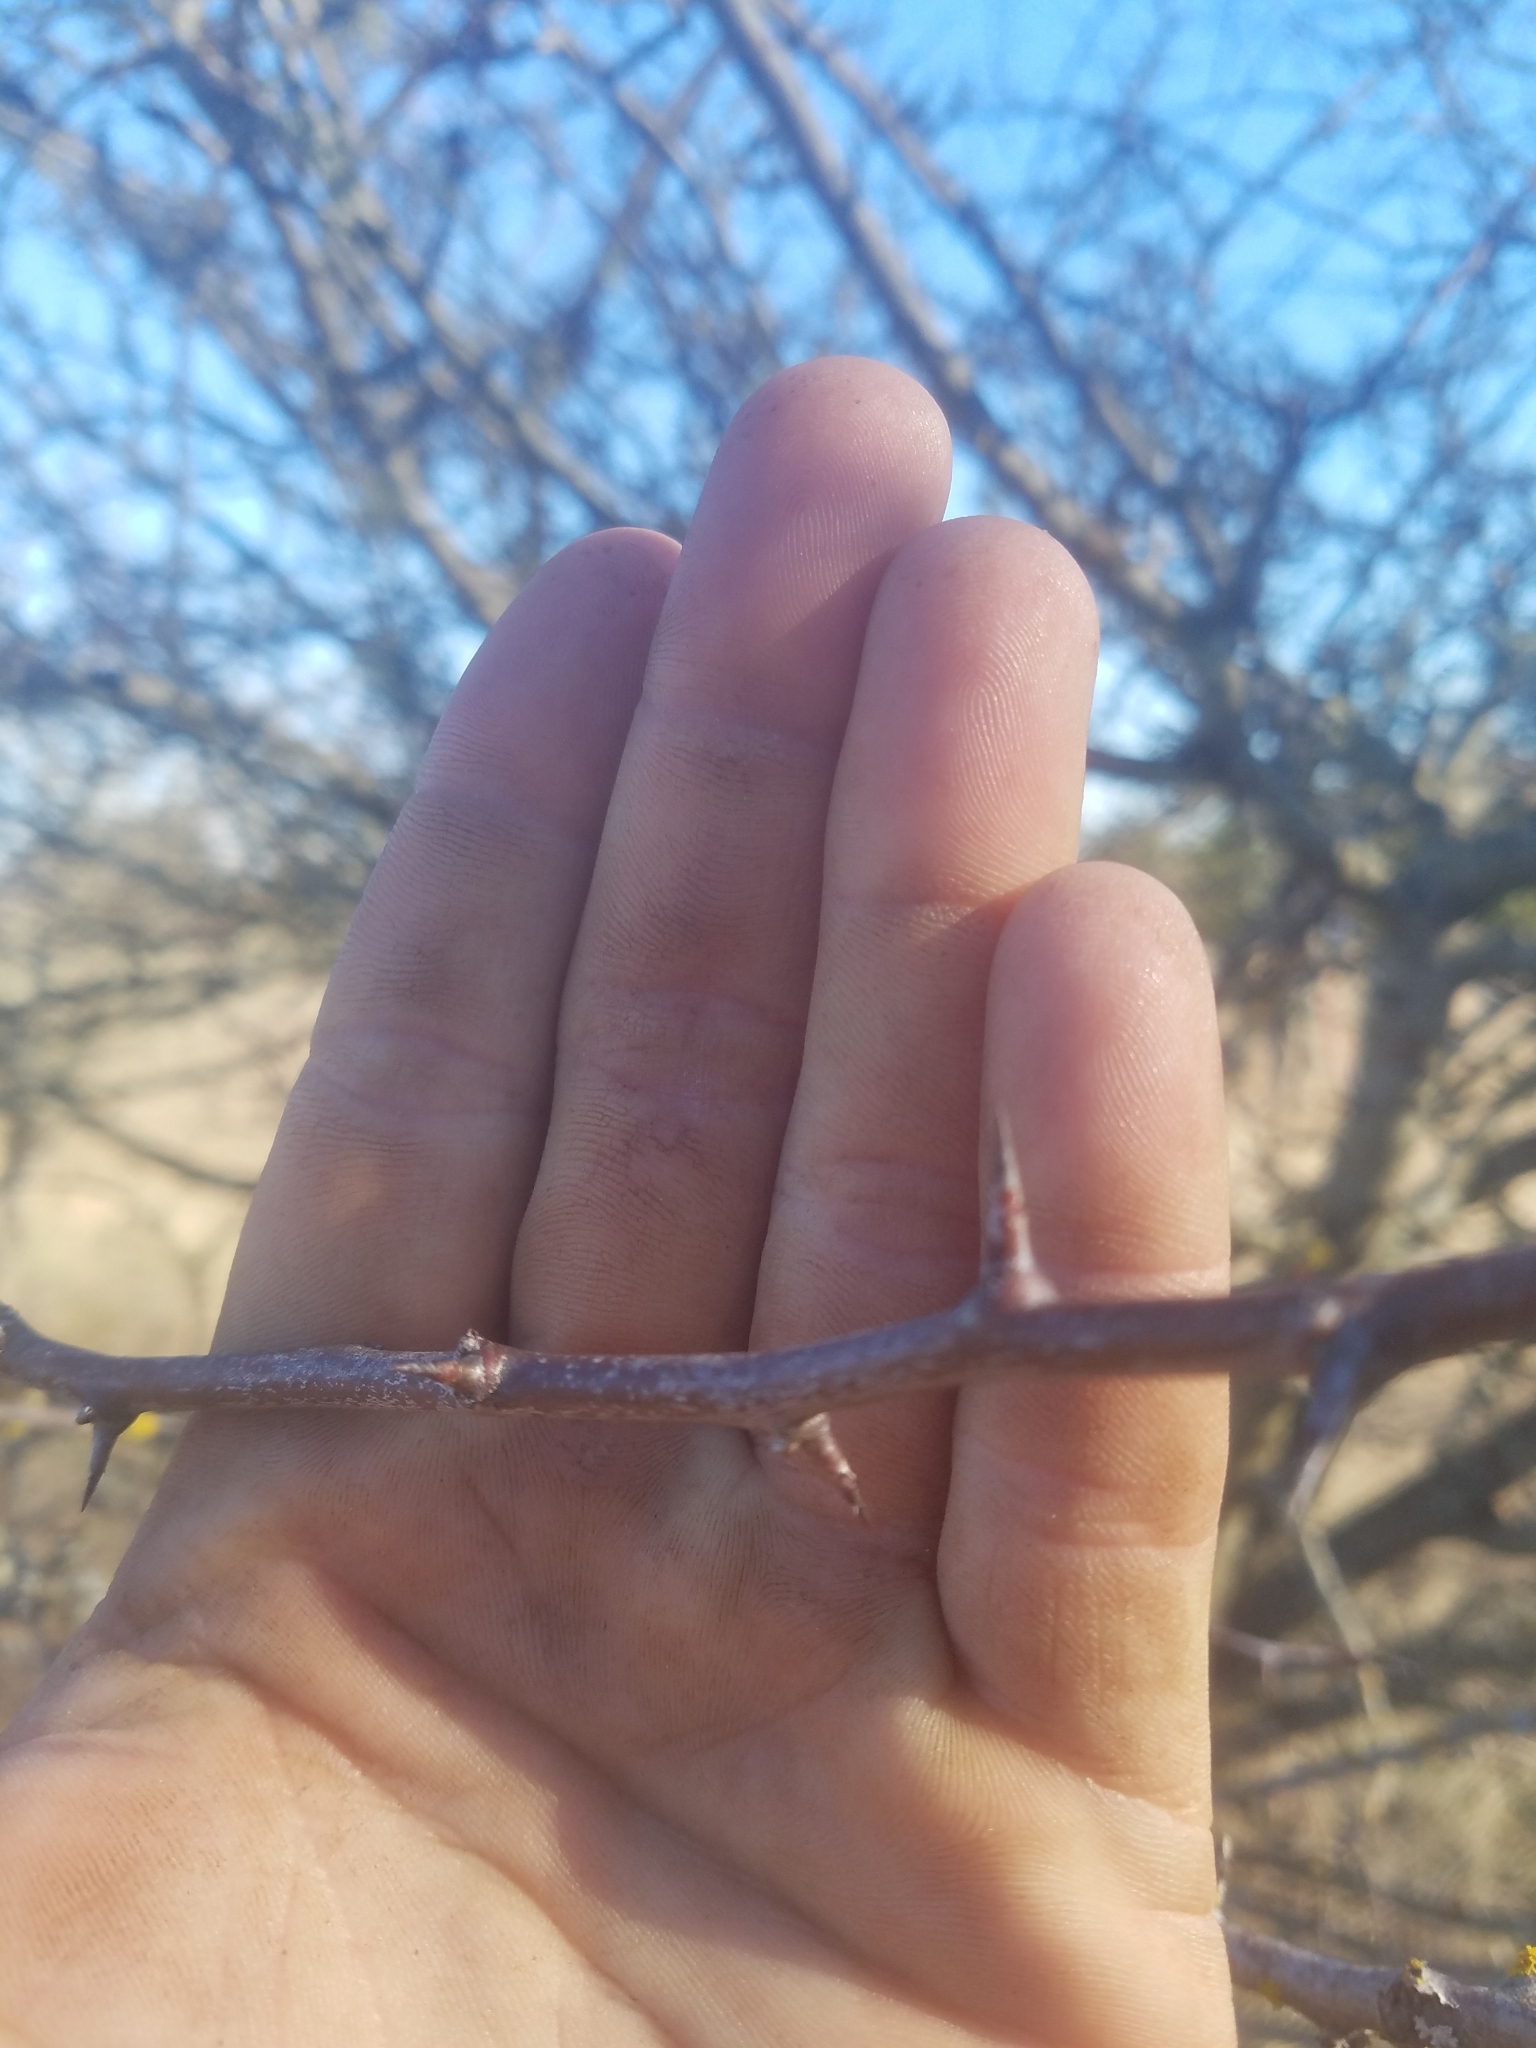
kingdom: Plantae
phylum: Tracheophyta
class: Magnoliopsida
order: Rosales
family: Rosaceae
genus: Crataegus
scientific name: Crataegus gaylussacia
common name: Huckleberry hawthorn
